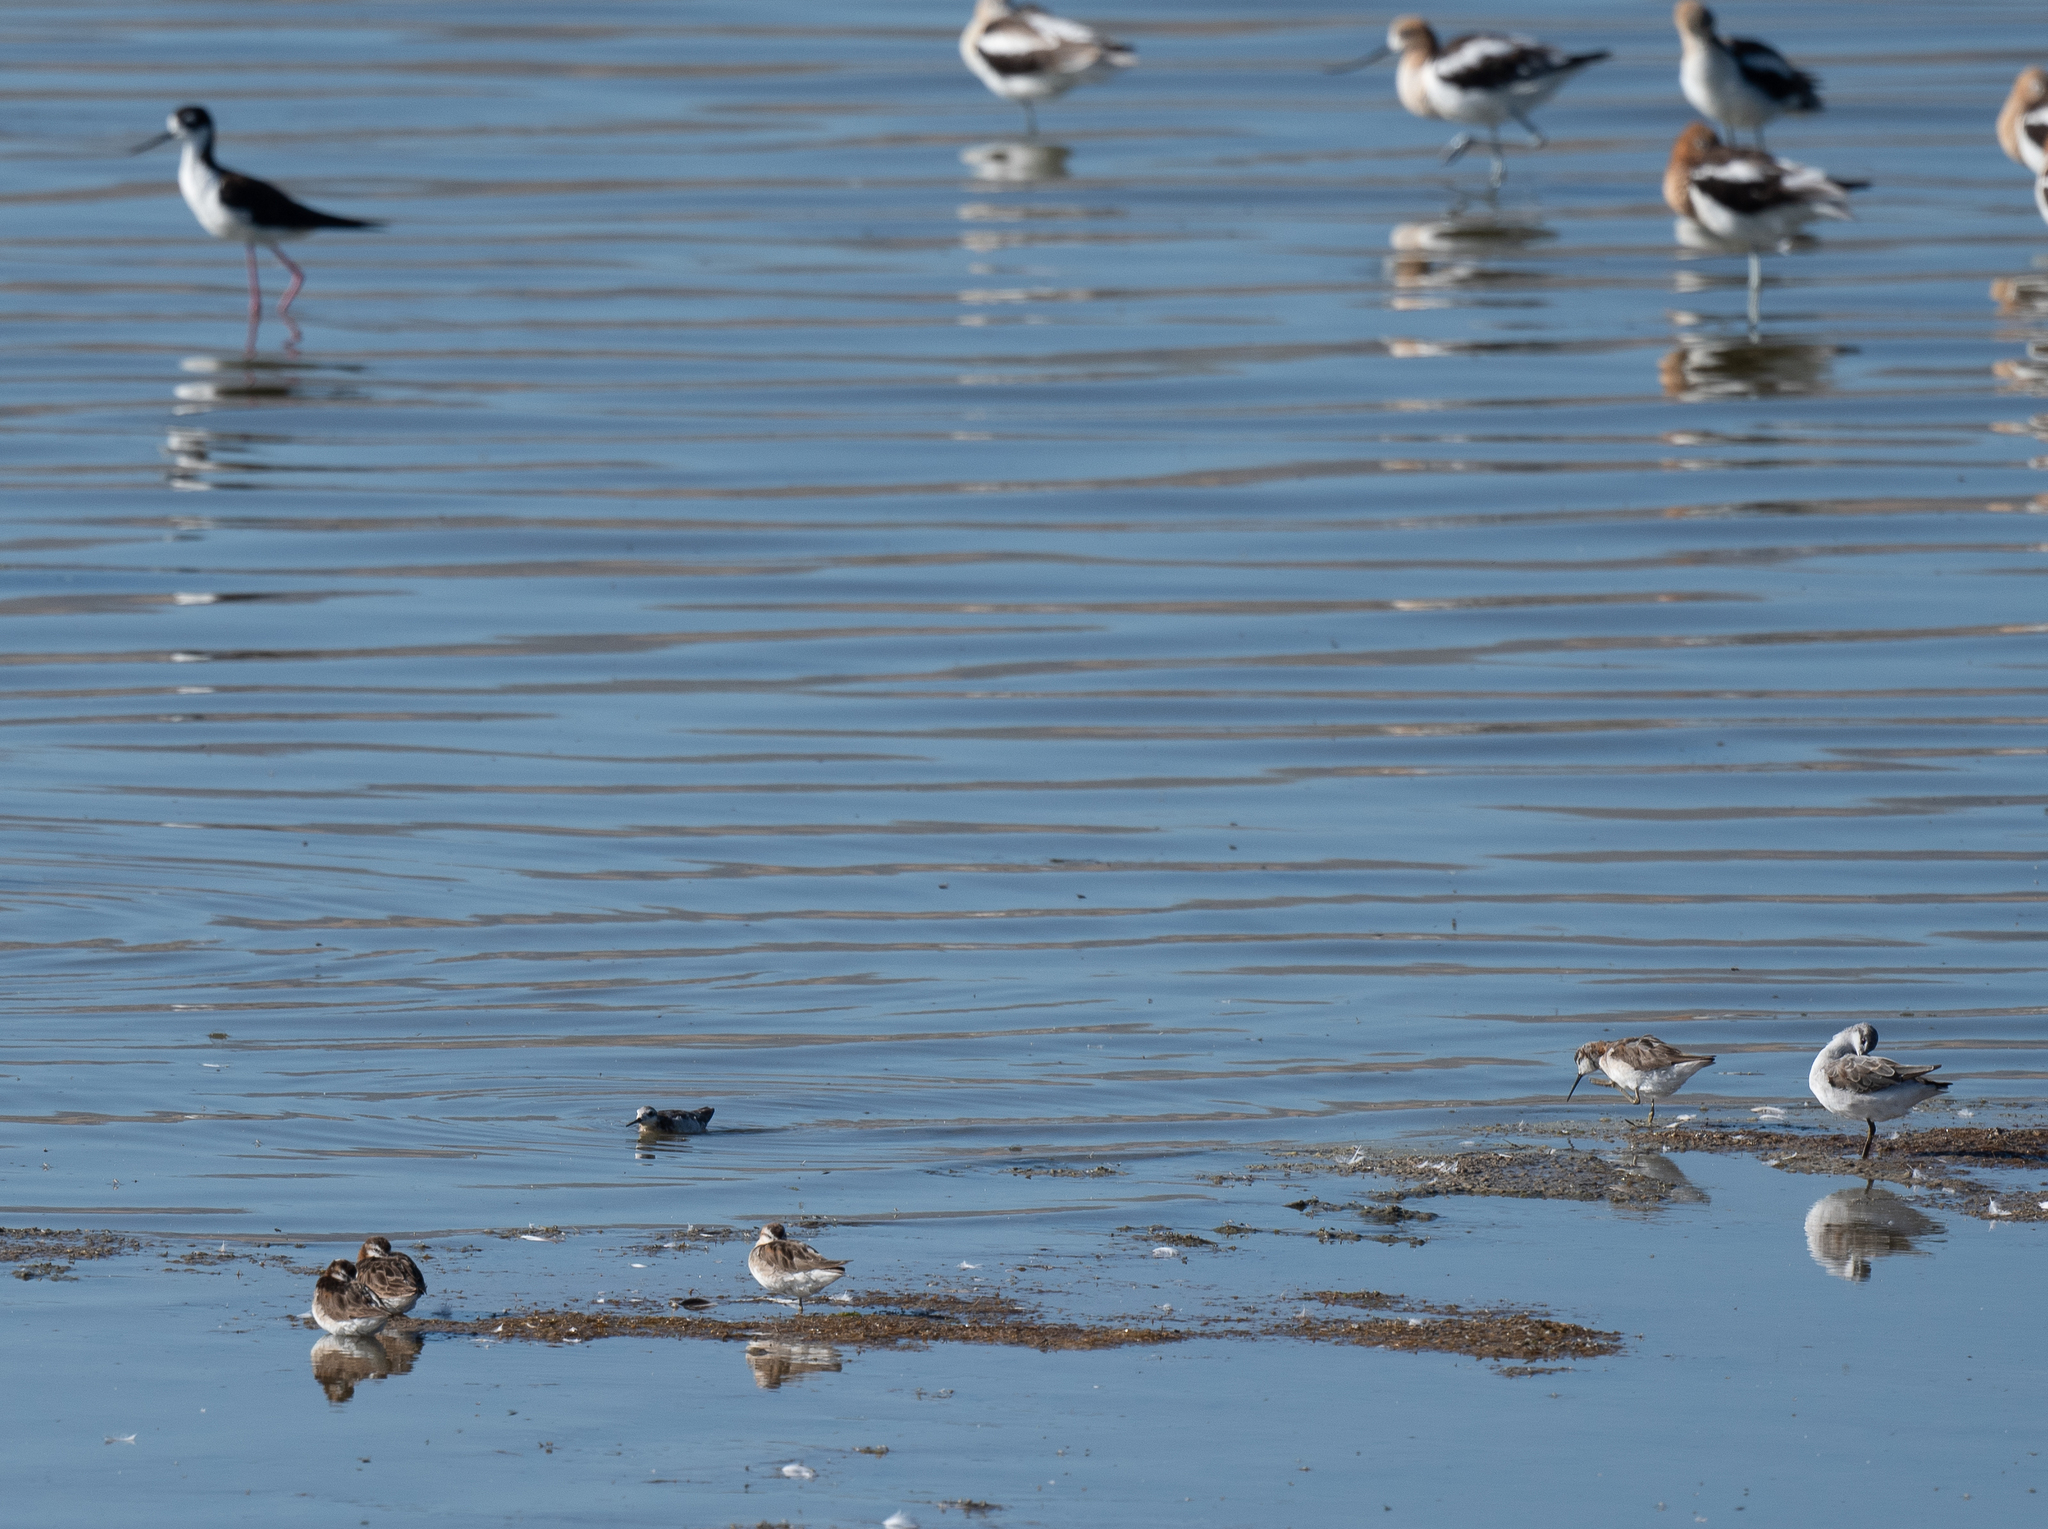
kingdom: Animalia
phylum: Chordata
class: Aves
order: Charadriiformes
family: Recurvirostridae
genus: Himantopus
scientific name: Himantopus mexicanus
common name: Black-necked stilt
